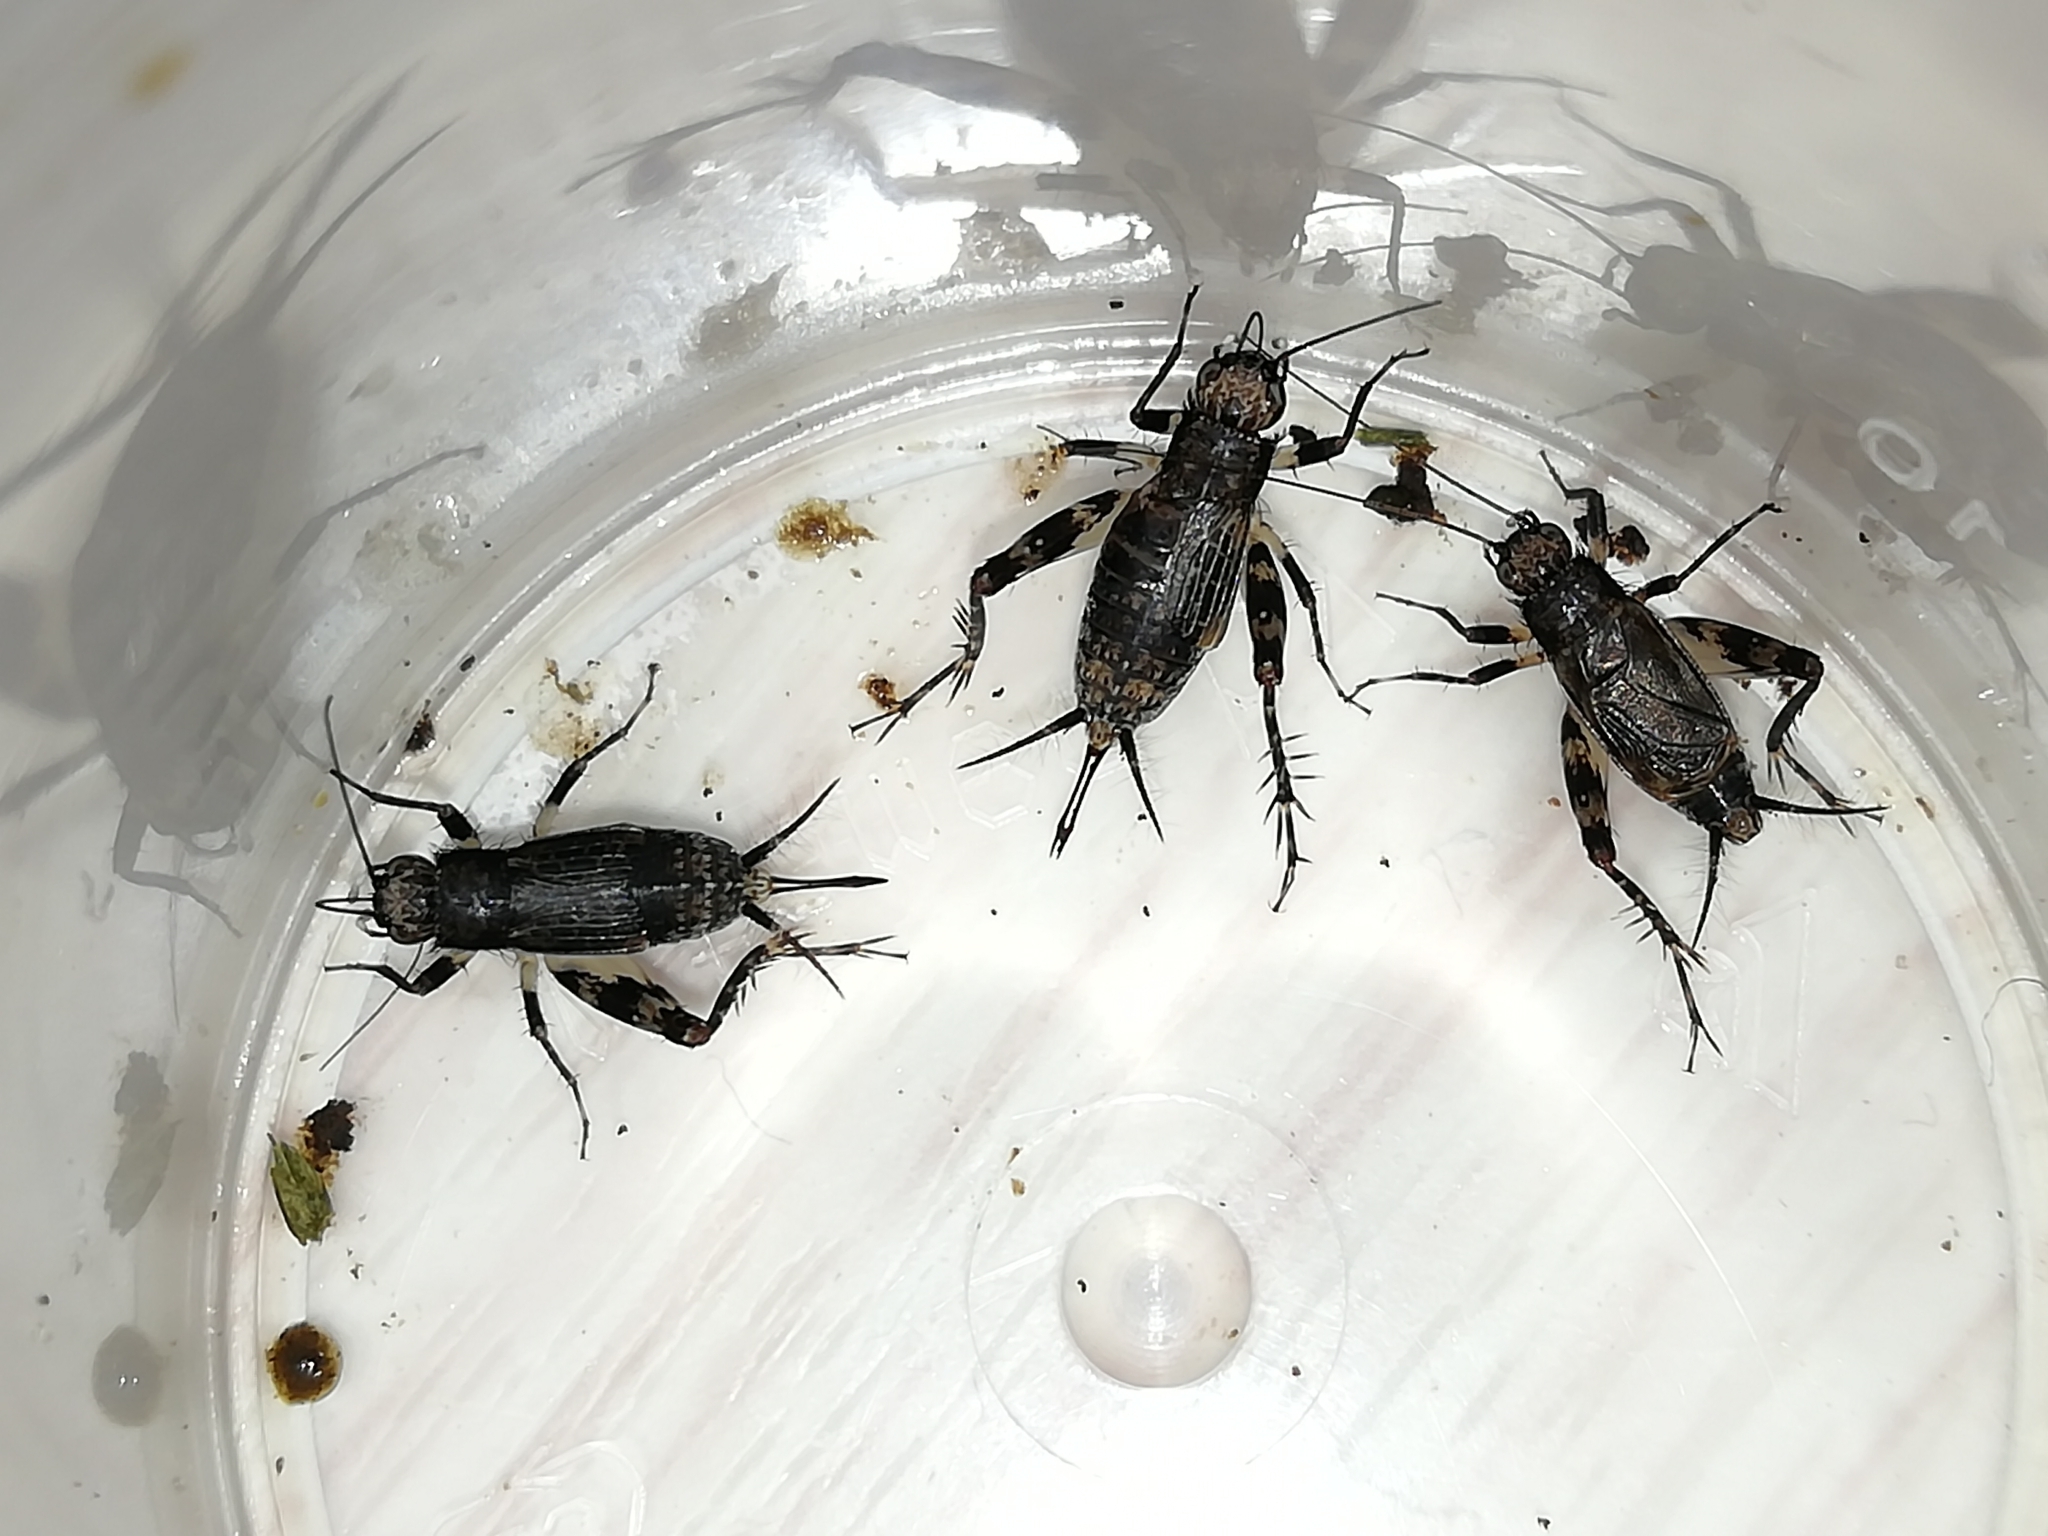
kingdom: Animalia
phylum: Arthropoda
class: Insecta
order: Orthoptera
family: Trigonidiidae
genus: Dianemobius
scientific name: Dianemobius fascipes
